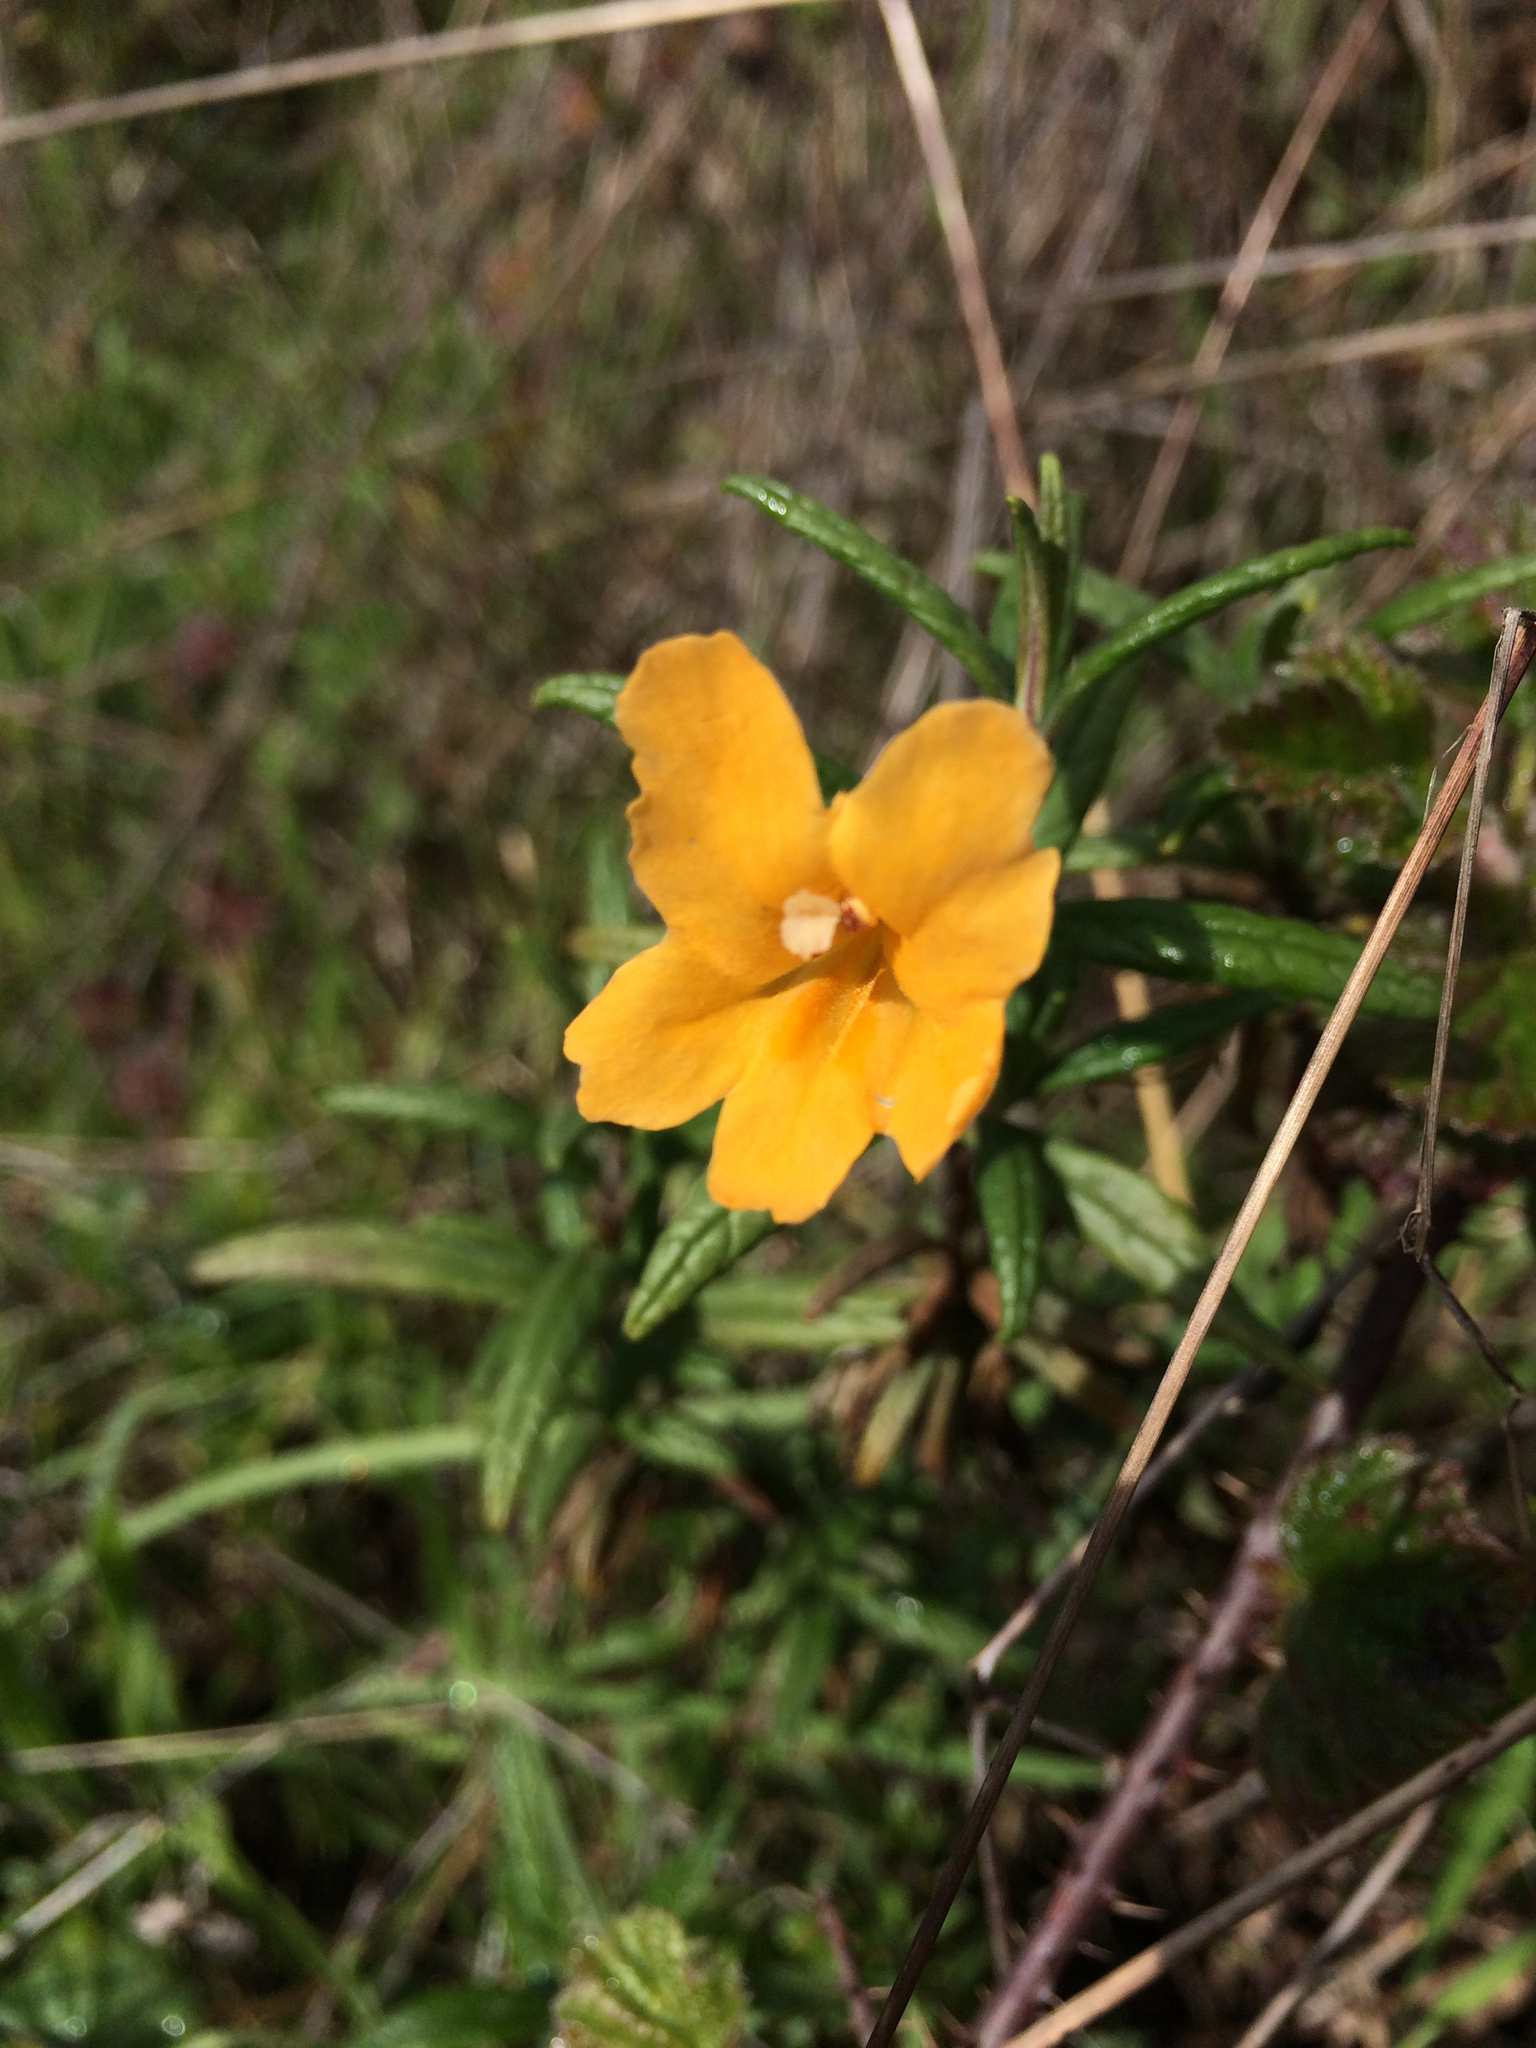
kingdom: Plantae
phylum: Tracheophyta
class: Magnoliopsida
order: Lamiales
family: Phrymaceae
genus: Diplacus
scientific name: Diplacus aurantiacus
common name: Bush monkey-flower
